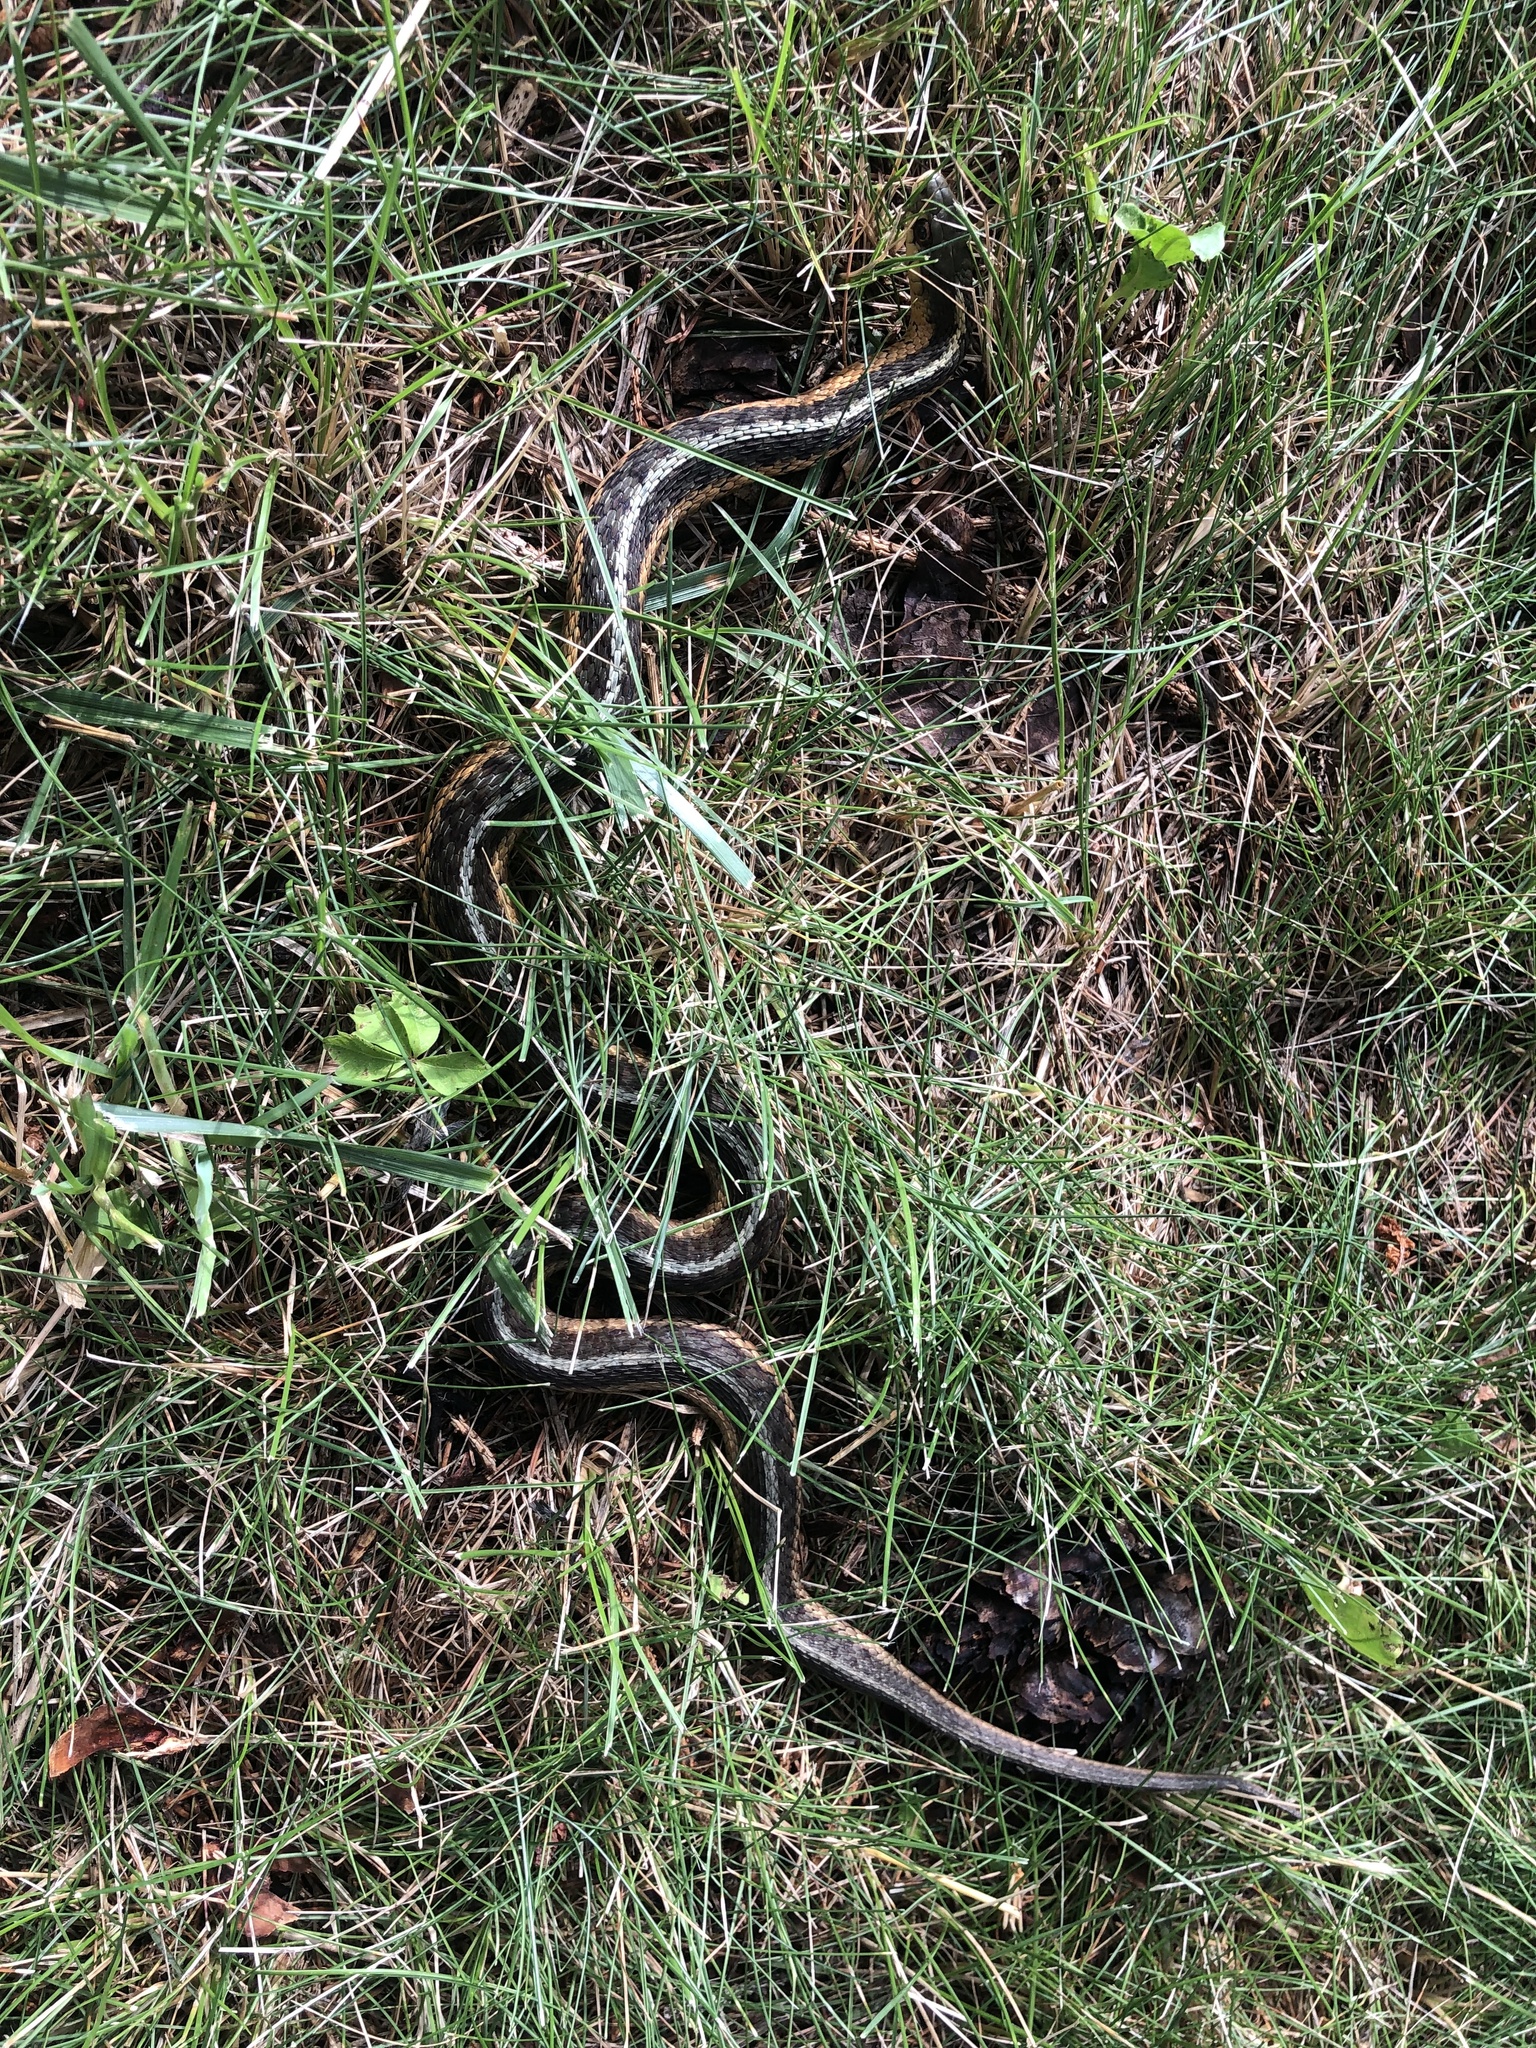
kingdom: Animalia
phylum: Chordata
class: Squamata
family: Colubridae
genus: Thamnophis
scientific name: Thamnophis sirtalis
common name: Common garter snake
